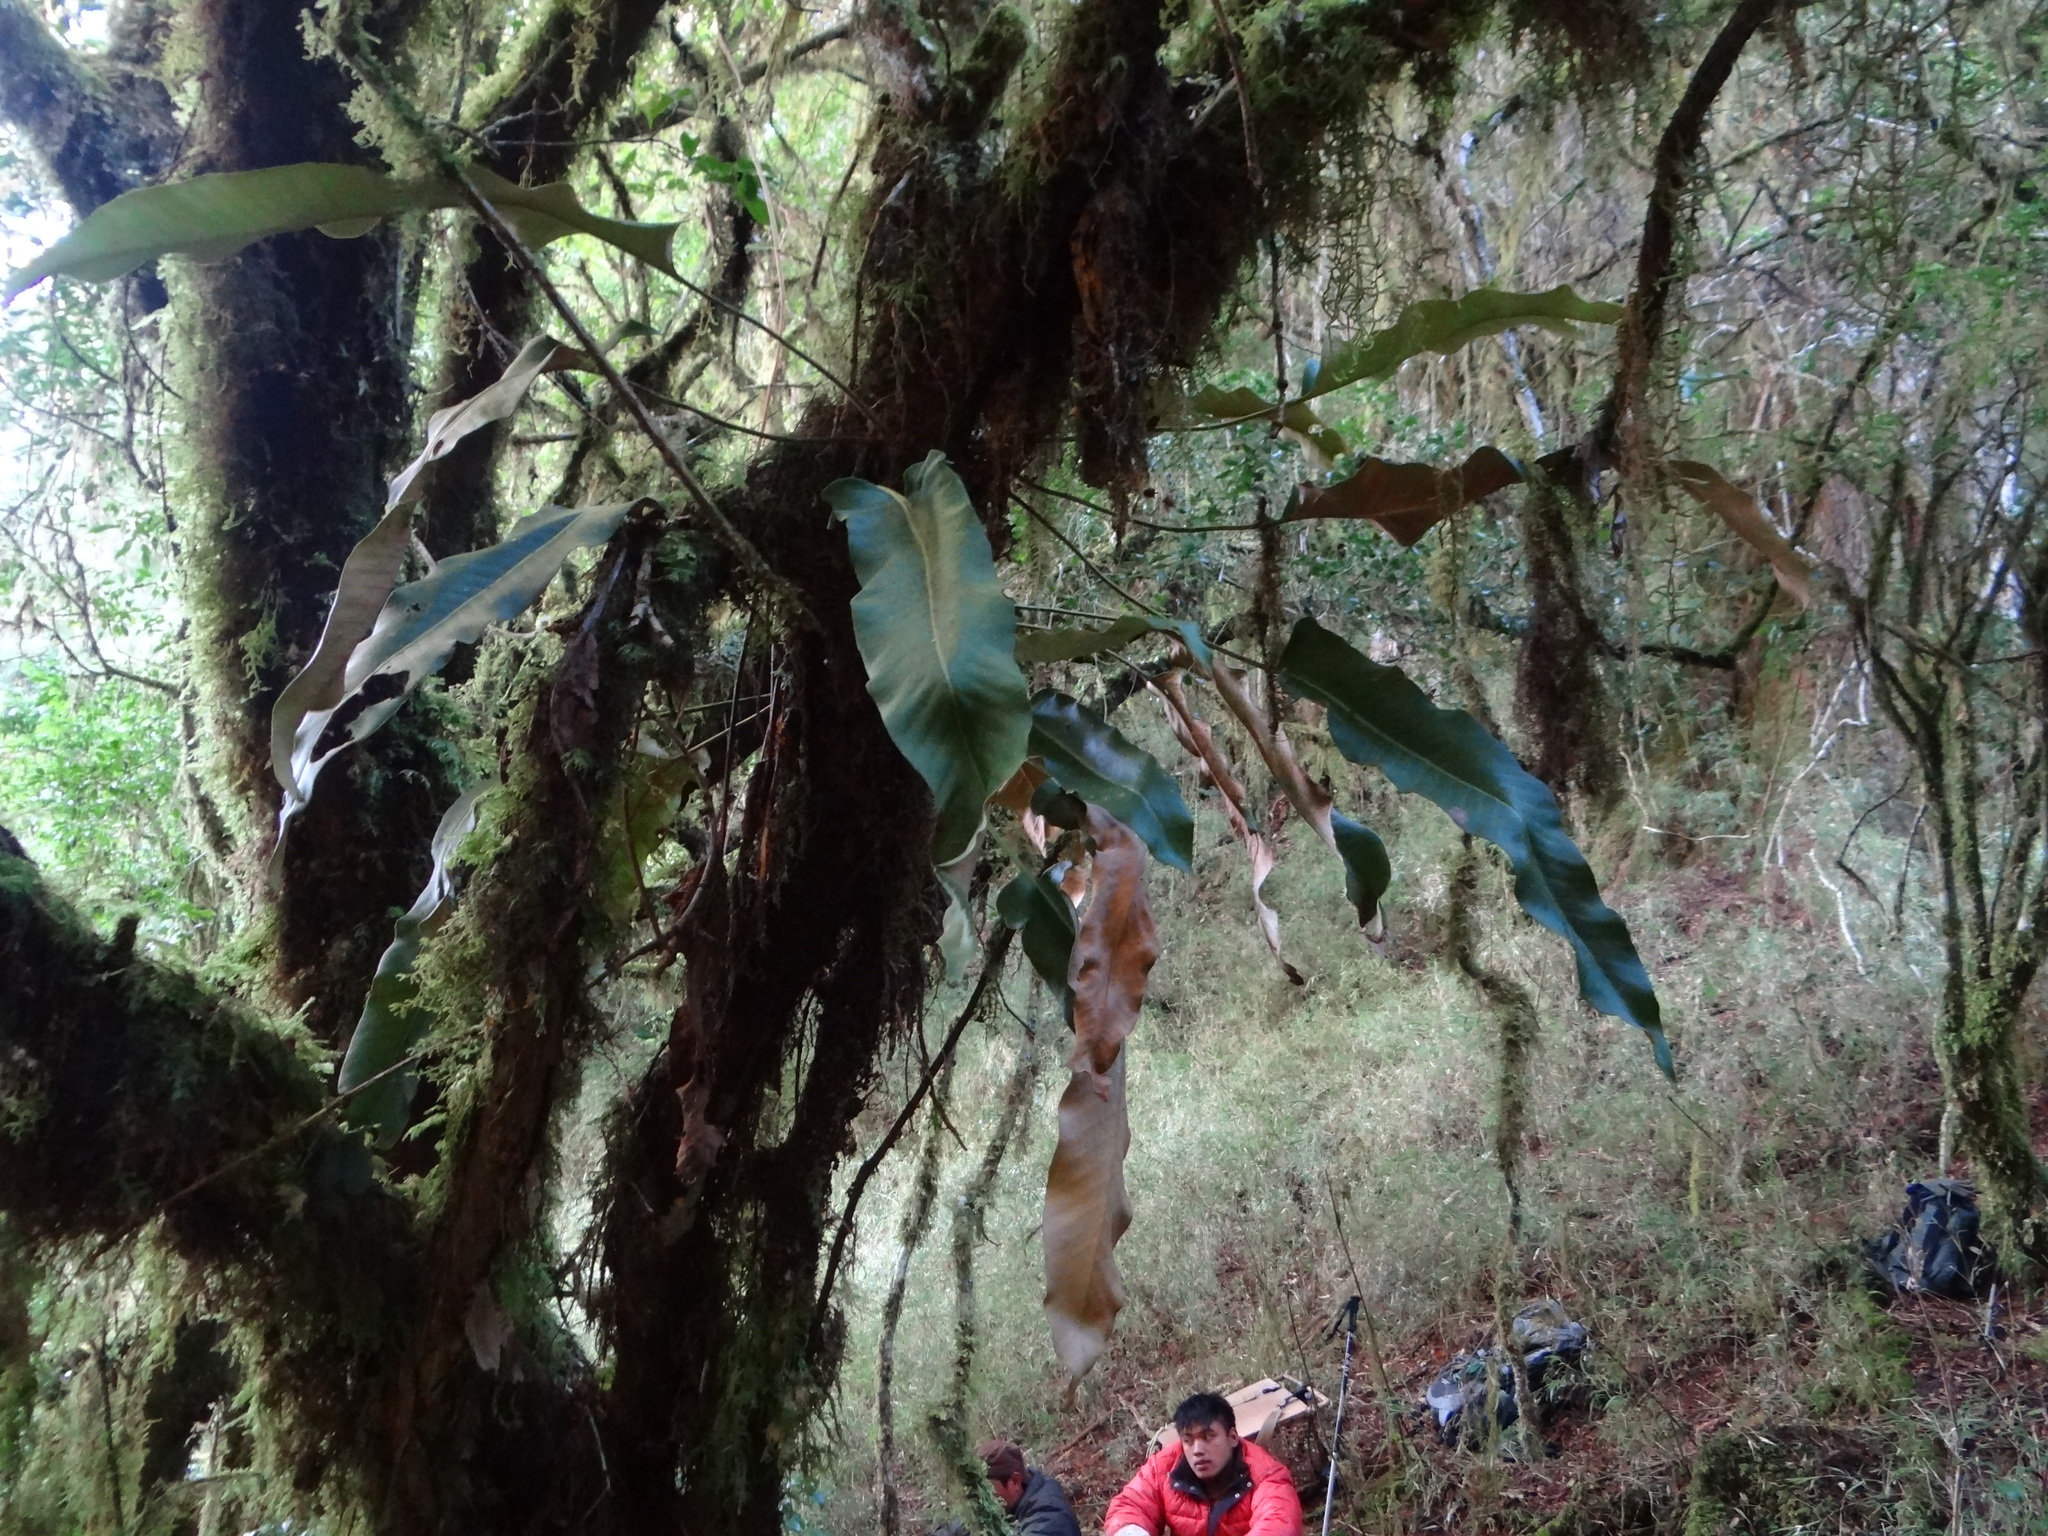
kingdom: Plantae
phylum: Tracheophyta
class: Polypodiopsida
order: Polypodiales
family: Polypodiaceae
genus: Pyrrosia
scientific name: Pyrrosia sheareri
